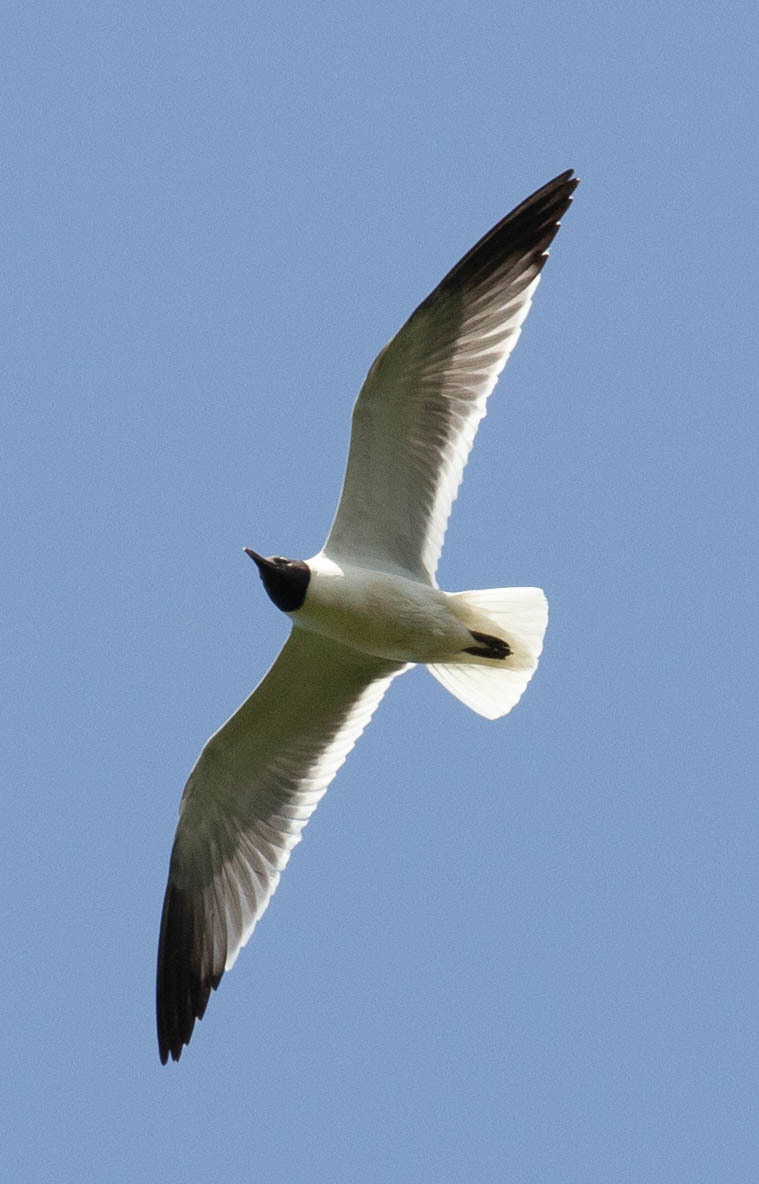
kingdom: Animalia
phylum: Chordata
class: Aves
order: Charadriiformes
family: Laridae
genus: Leucophaeus
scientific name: Leucophaeus atricilla
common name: Laughing gull
